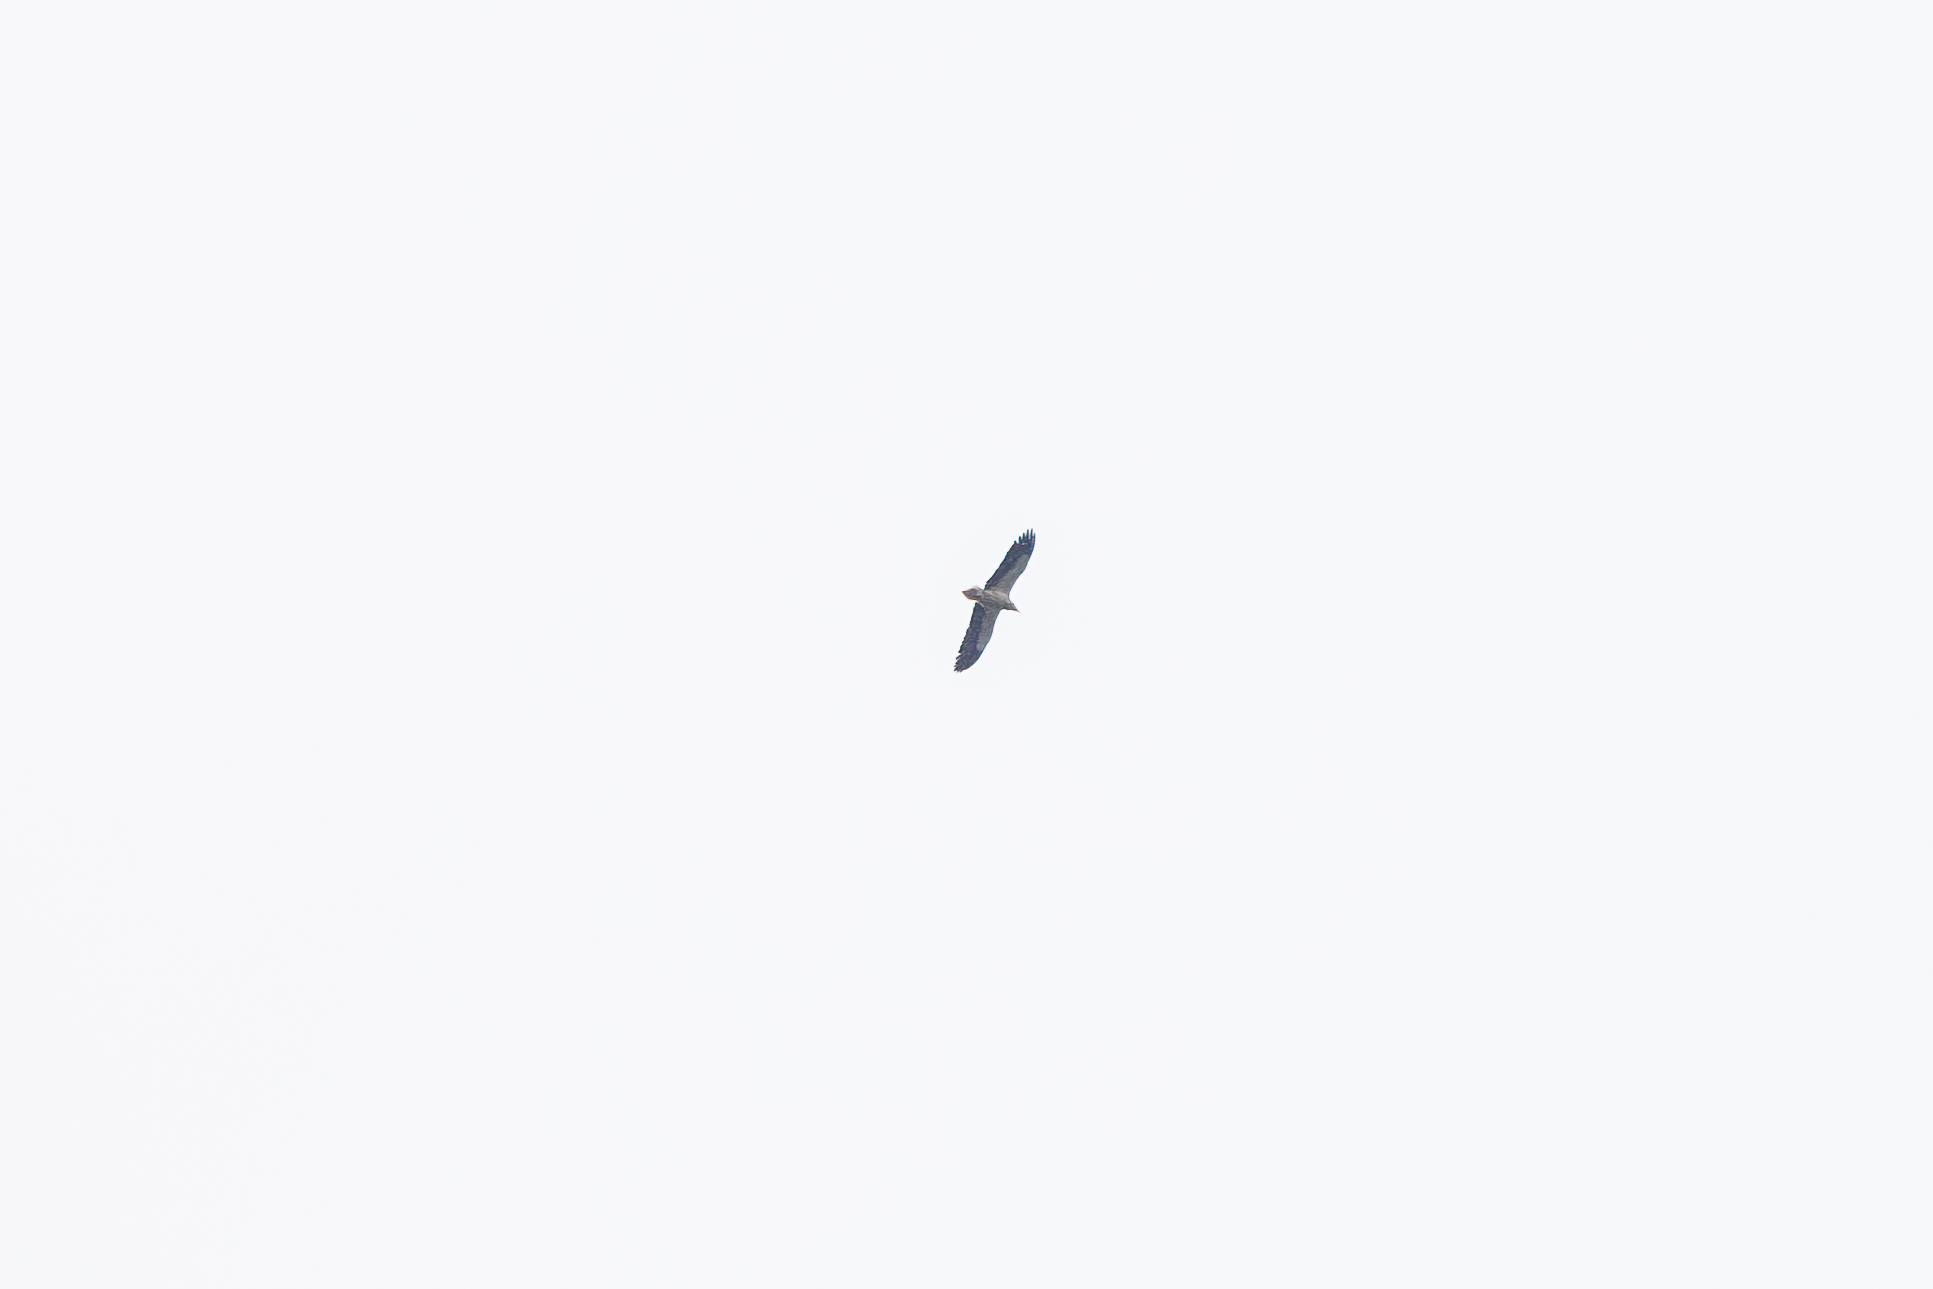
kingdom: Animalia
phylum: Chordata
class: Aves
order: Accipitriformes
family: Accipitridae
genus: Neophron
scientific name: Neophron percnopterus
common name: Egyptian vulture
